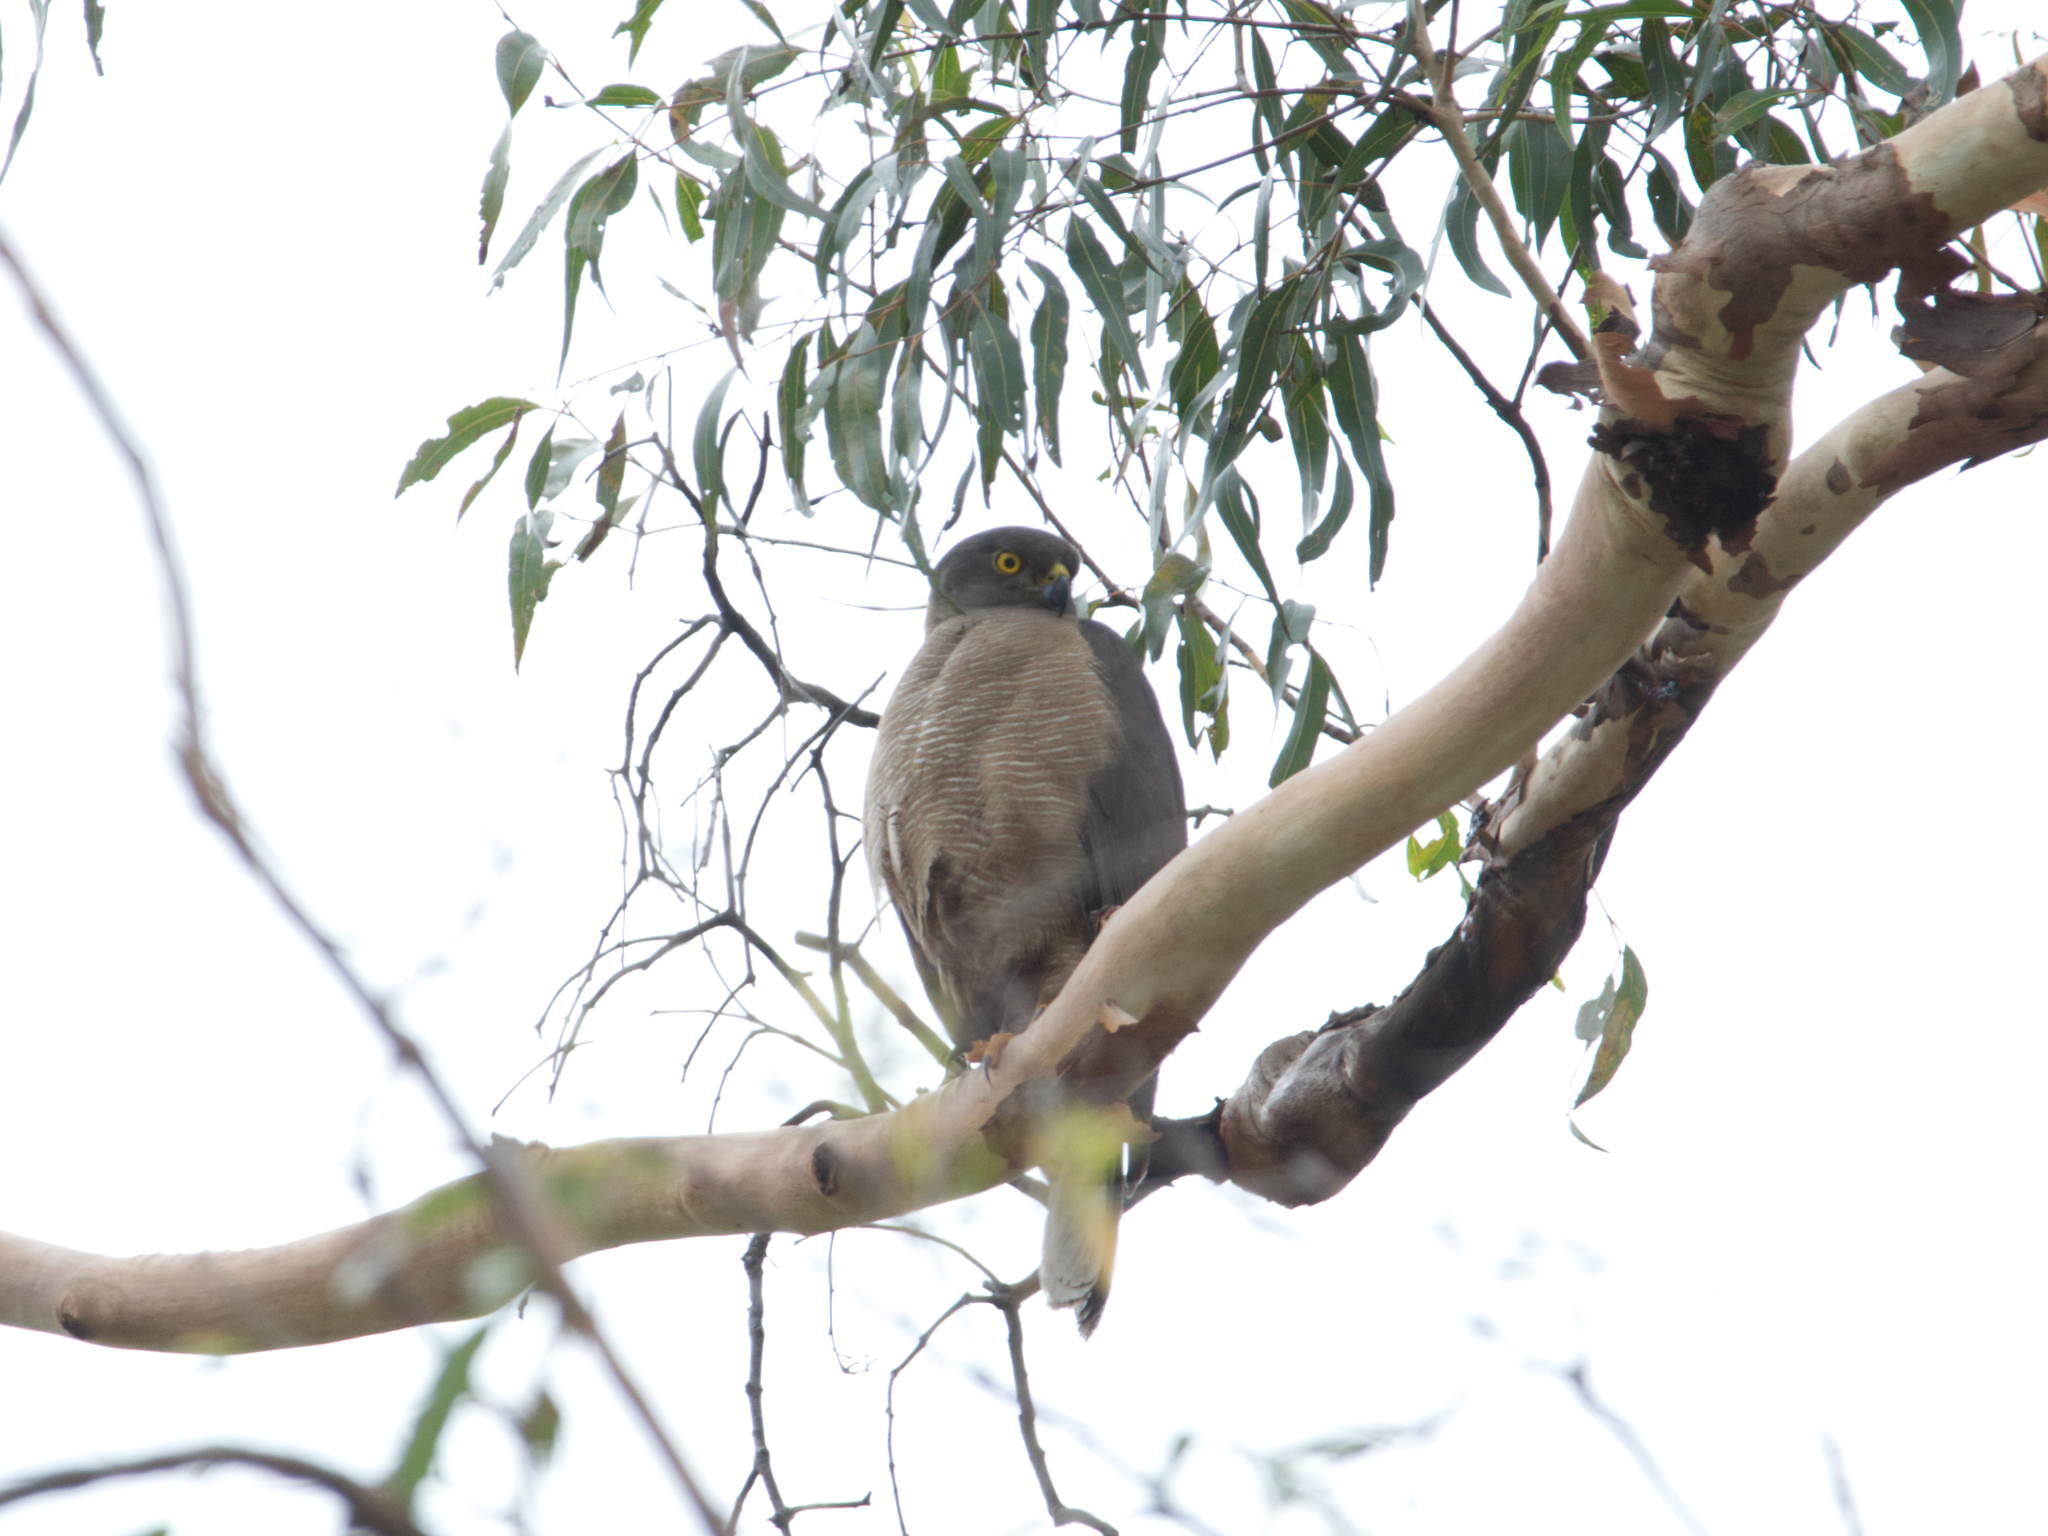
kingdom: Animalia
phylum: Chordata
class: Aves
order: Accipitriformes
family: Accipitridae
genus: Accipiter
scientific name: Accipiter fasciatus
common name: Brown goshawk
